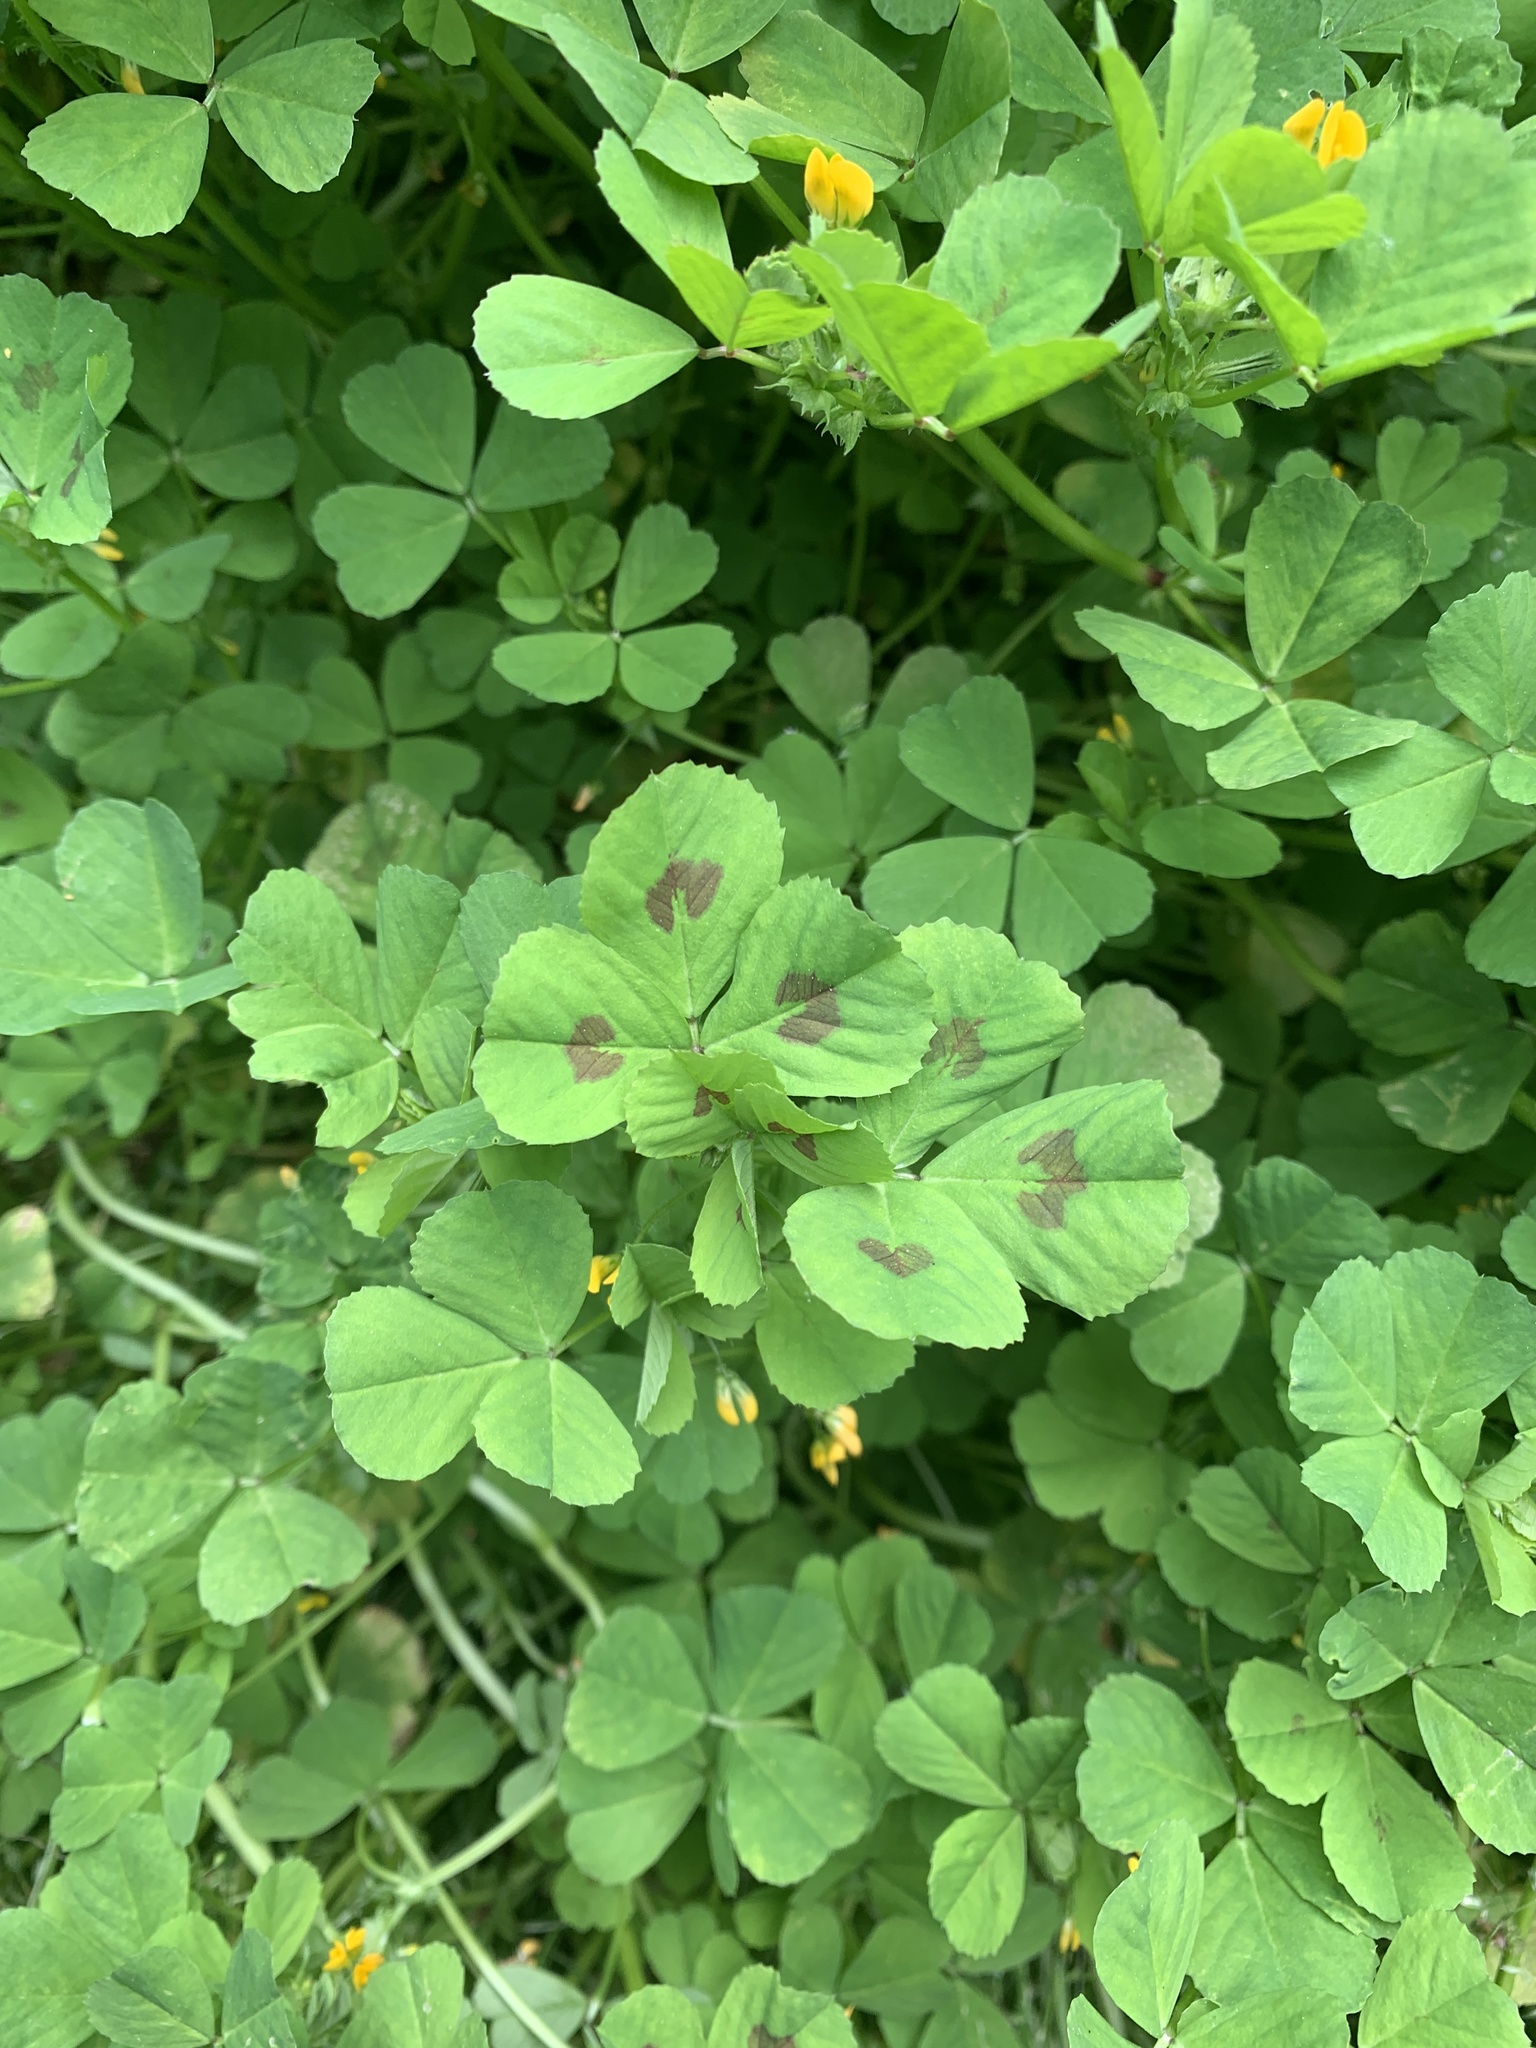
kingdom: Plantae
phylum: Tracheophyta
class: Magnoliopsida
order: Fabales
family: Fabaceae
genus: Medicago
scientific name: Medicago arabica
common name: Spotted medick
